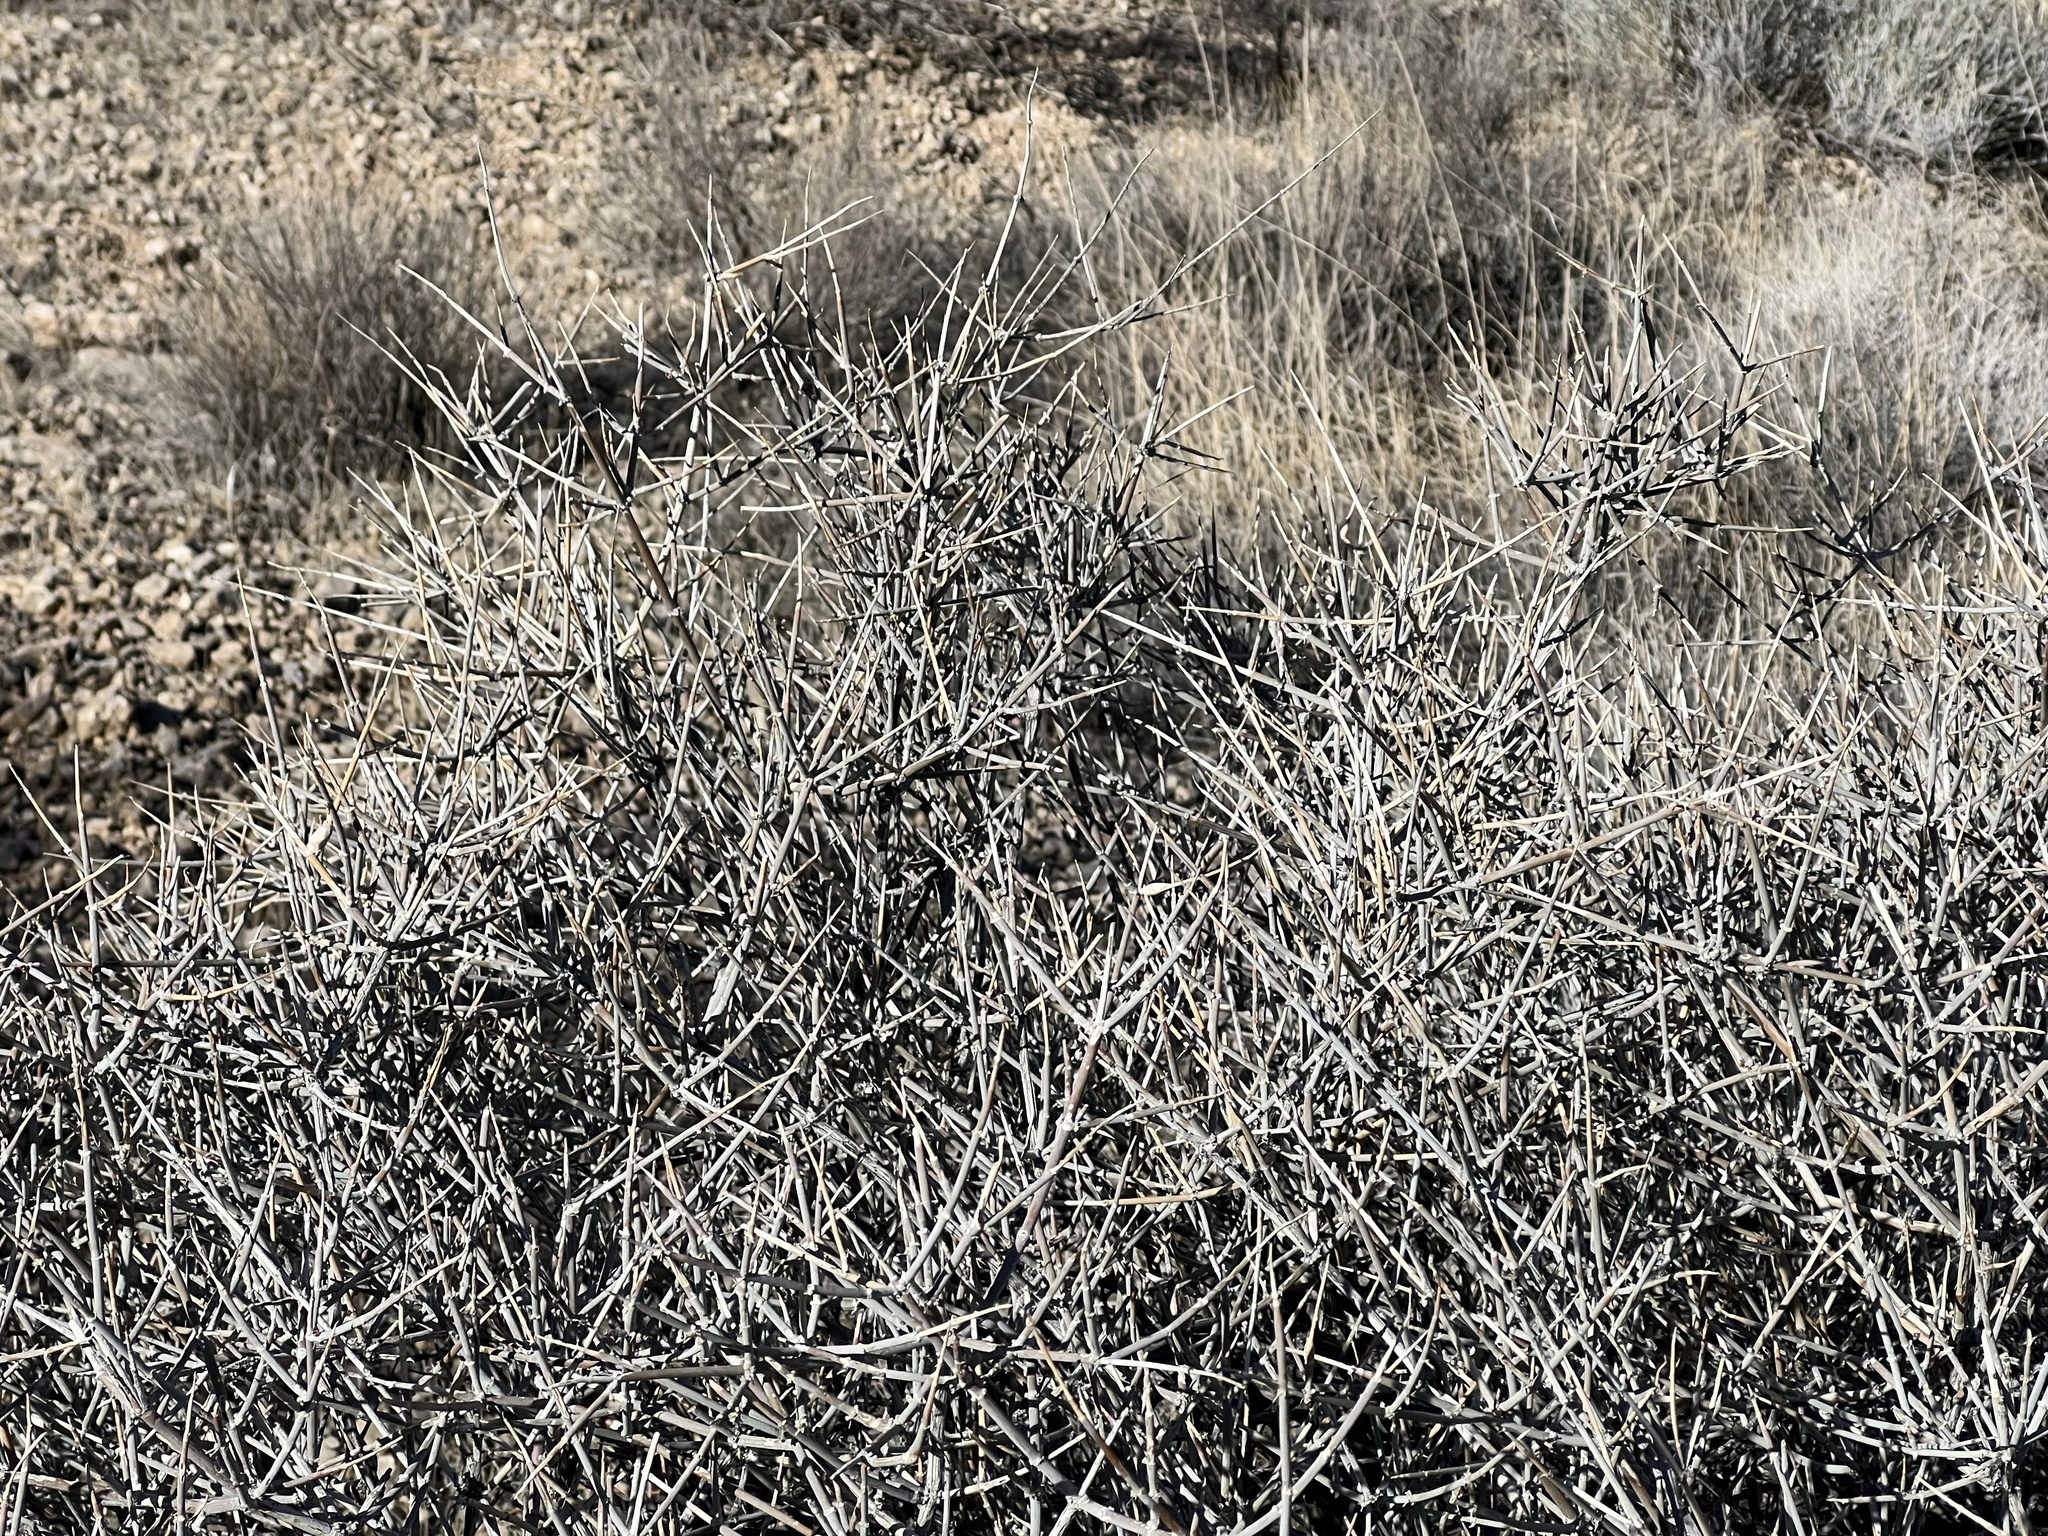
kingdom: Plantae
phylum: Tracheophyta
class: Gnetopsida
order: Ephedrales
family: Ephedraceae
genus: Ephedra
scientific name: Ephedra nevadensis
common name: Gray ephedra
